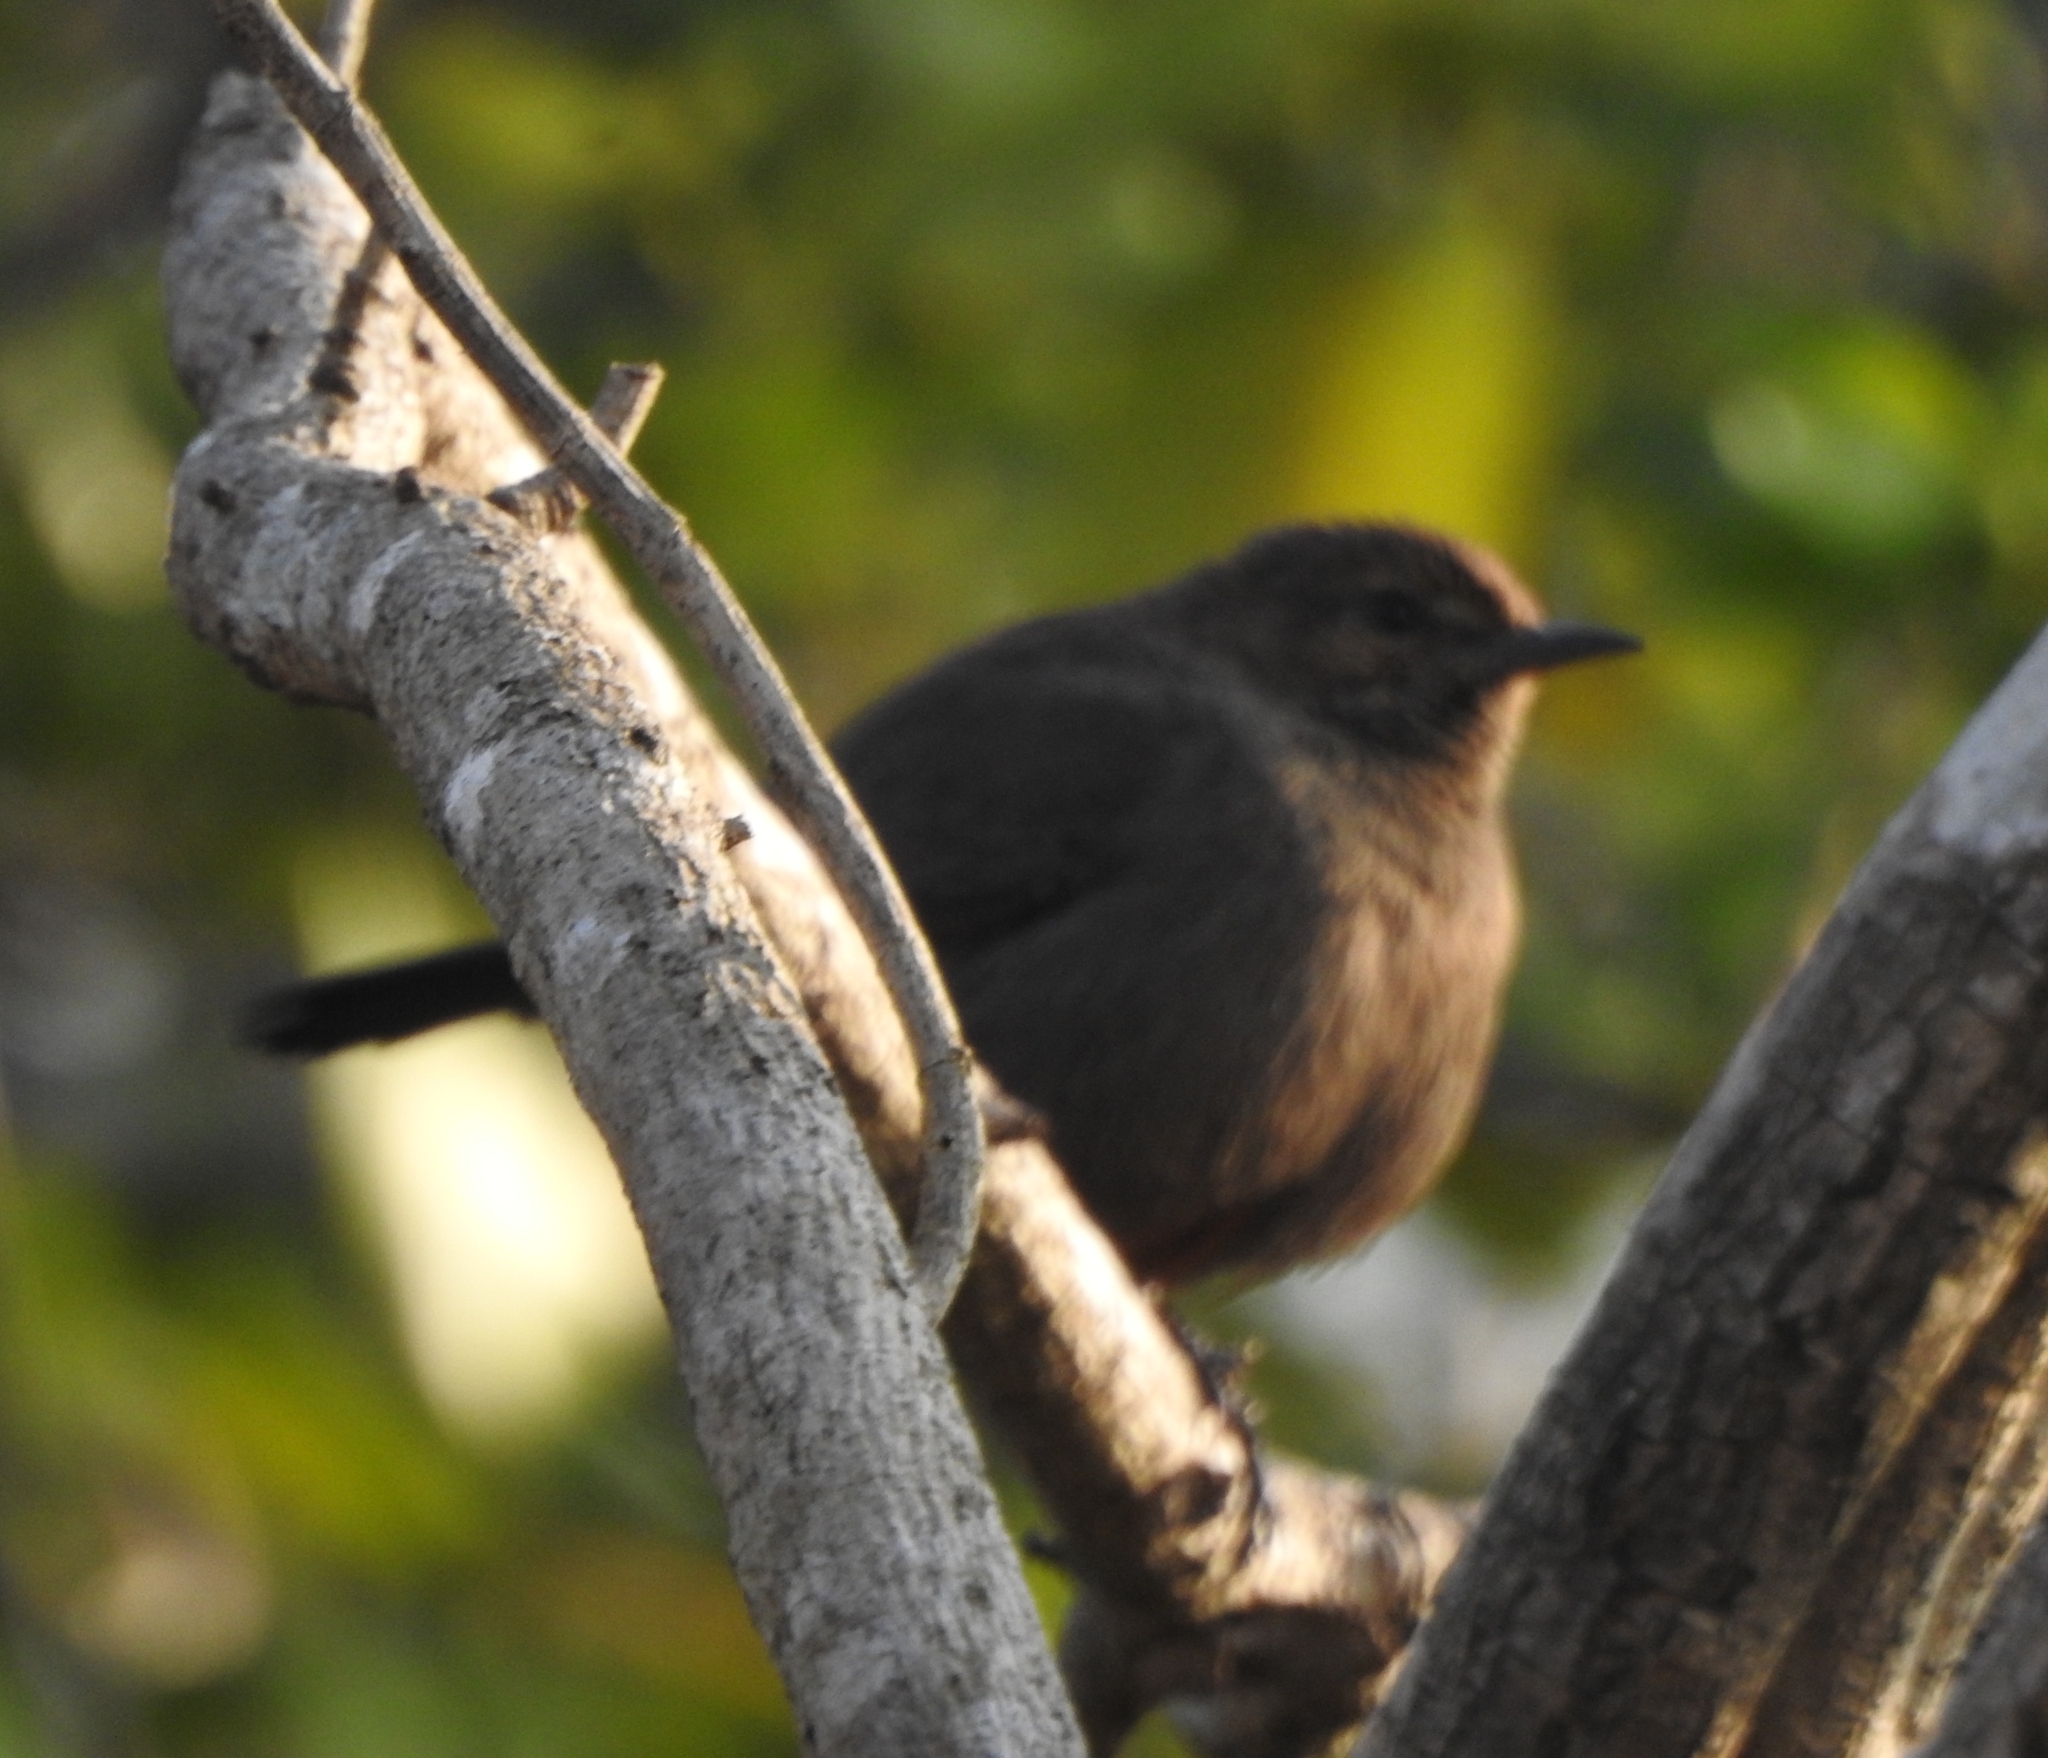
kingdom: Animalia
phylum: Chordata
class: Aves
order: Passeriformes
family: Muscicapidae
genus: Saxicoloides
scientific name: Saxicoloides fulicatus
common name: Indian robin
